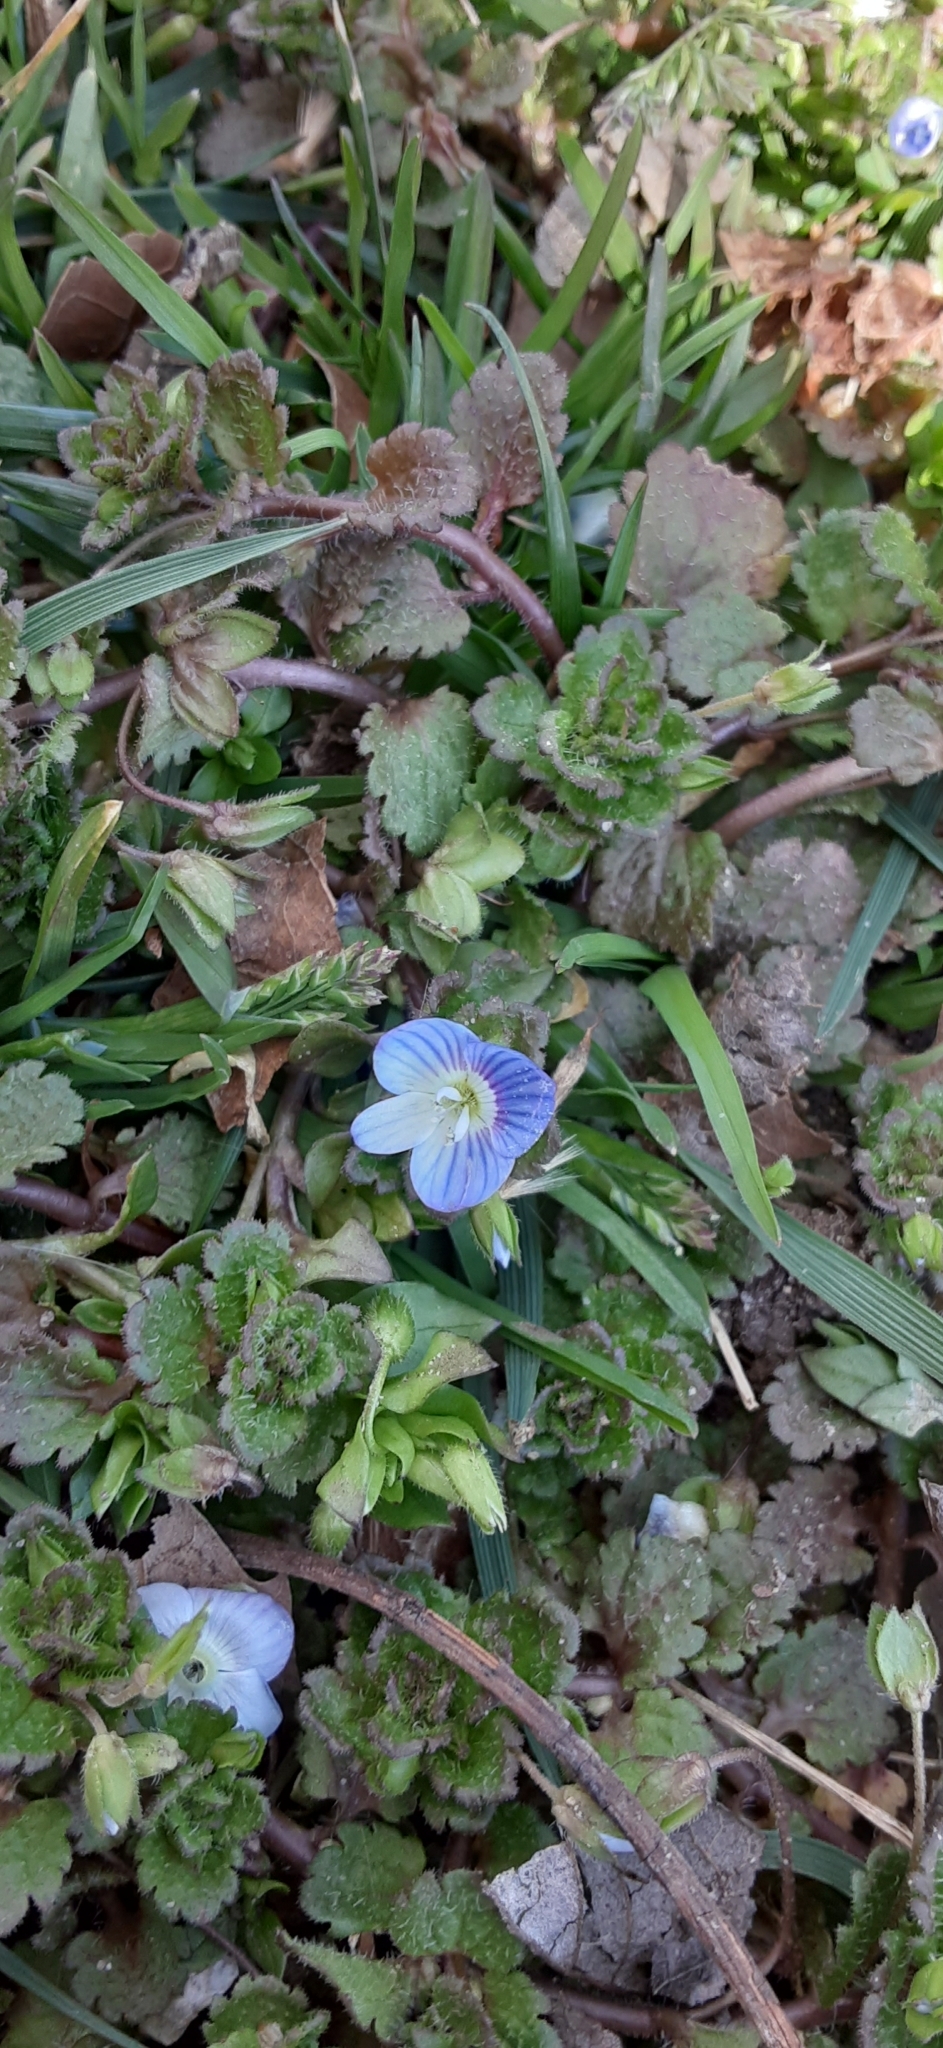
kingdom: Plantae
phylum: Tracheophyta
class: Magnoliopsida
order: Lamiales
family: Plantaginaceae
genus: Veronica
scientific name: Veronica persica
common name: Common field-speedwell
